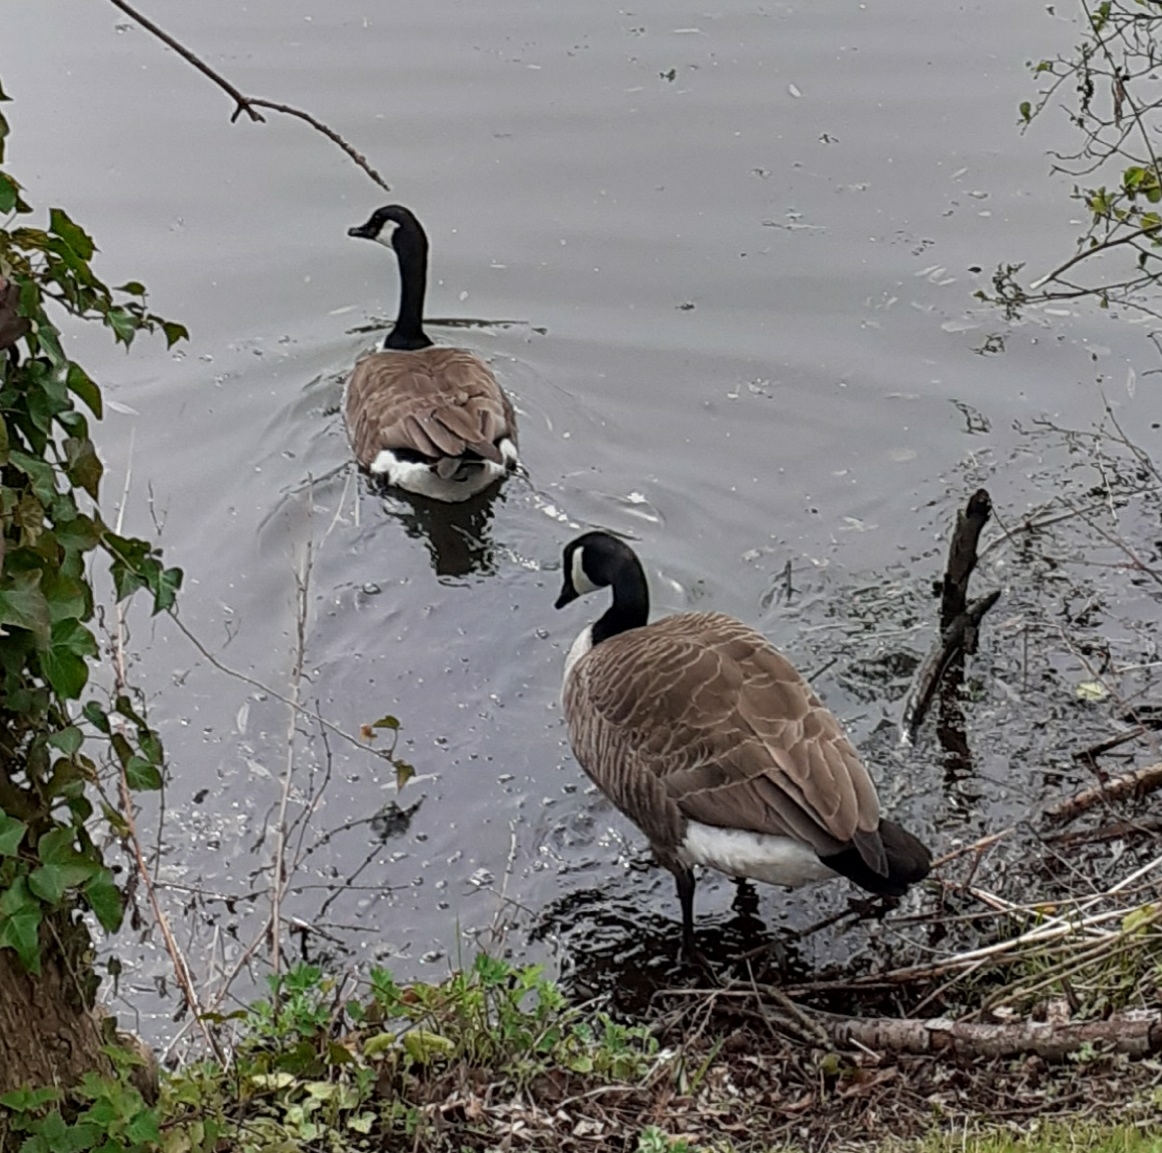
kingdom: Animalia
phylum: Chordata
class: Aves
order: Anseriformes
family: Anatidae
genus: Branta
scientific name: Branta canadensis
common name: Canada goose
